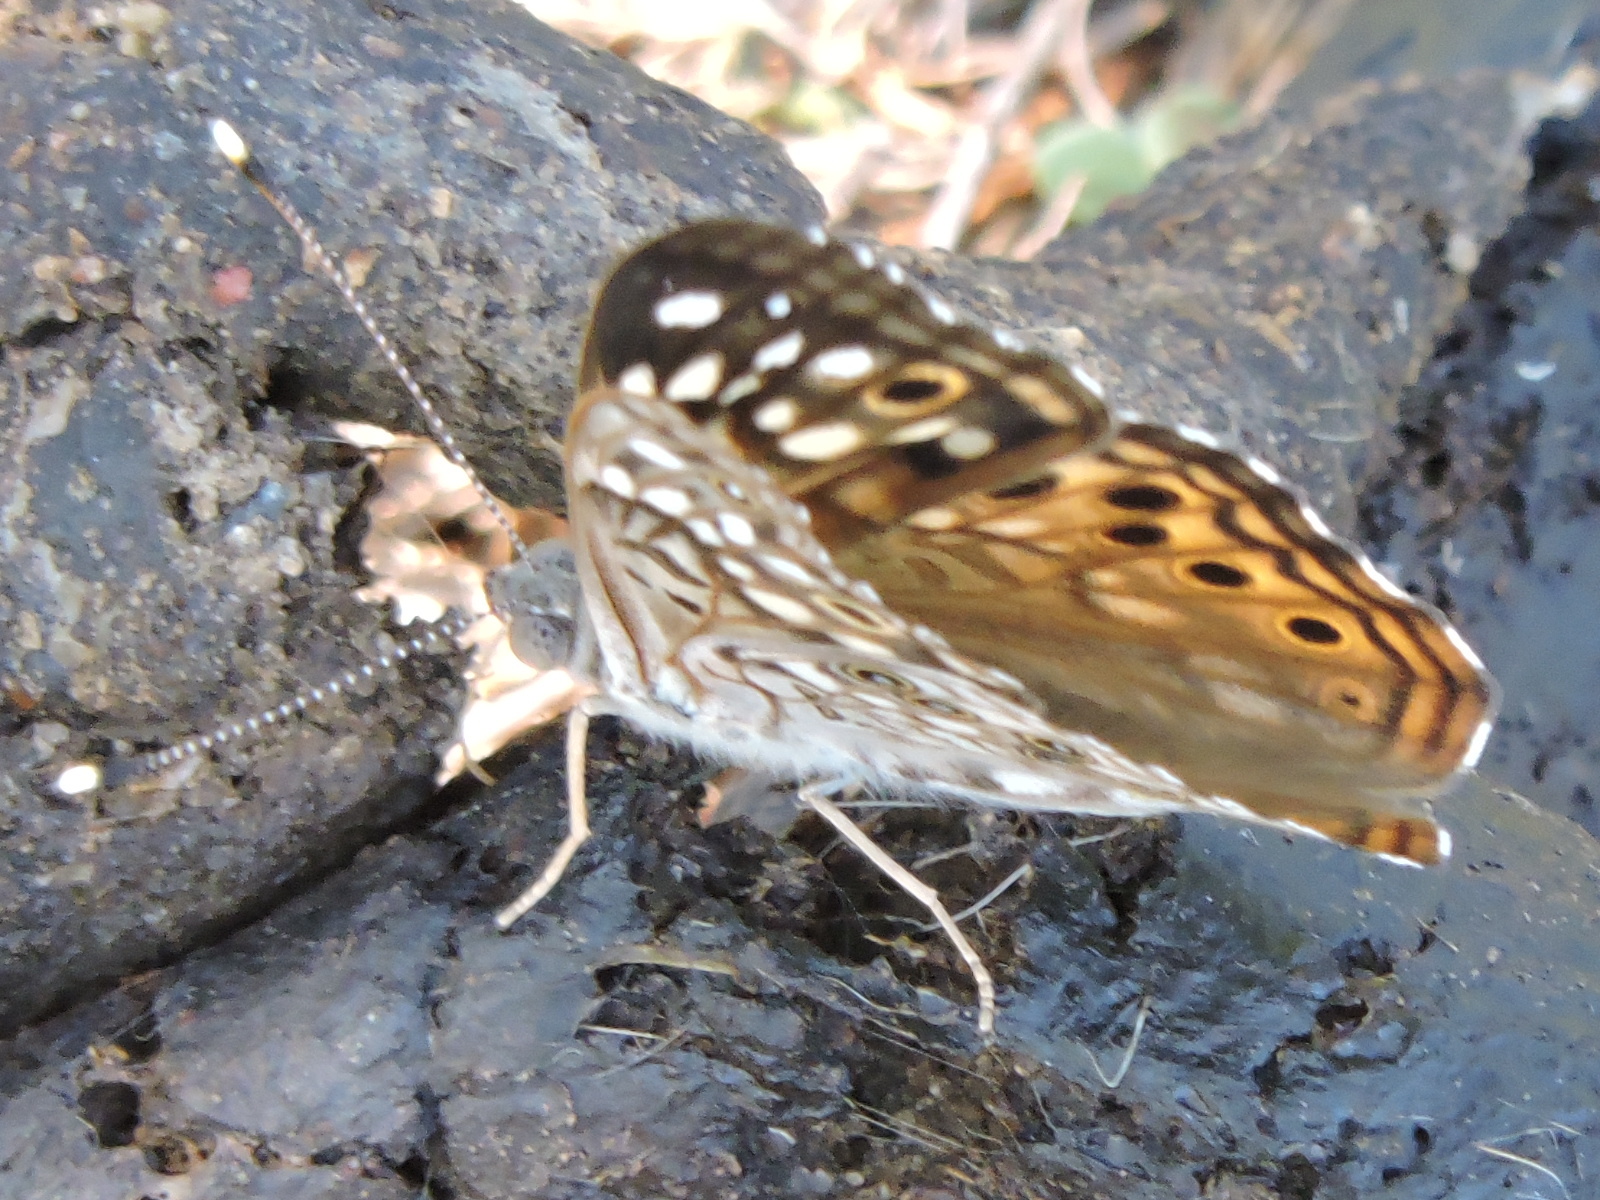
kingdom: Animalia
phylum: Arthropoda
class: Insecta
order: Lepidoptera
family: Nymphalidae
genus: Asterocampa
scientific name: Asterocampa celtis
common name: Hackberry emperor
